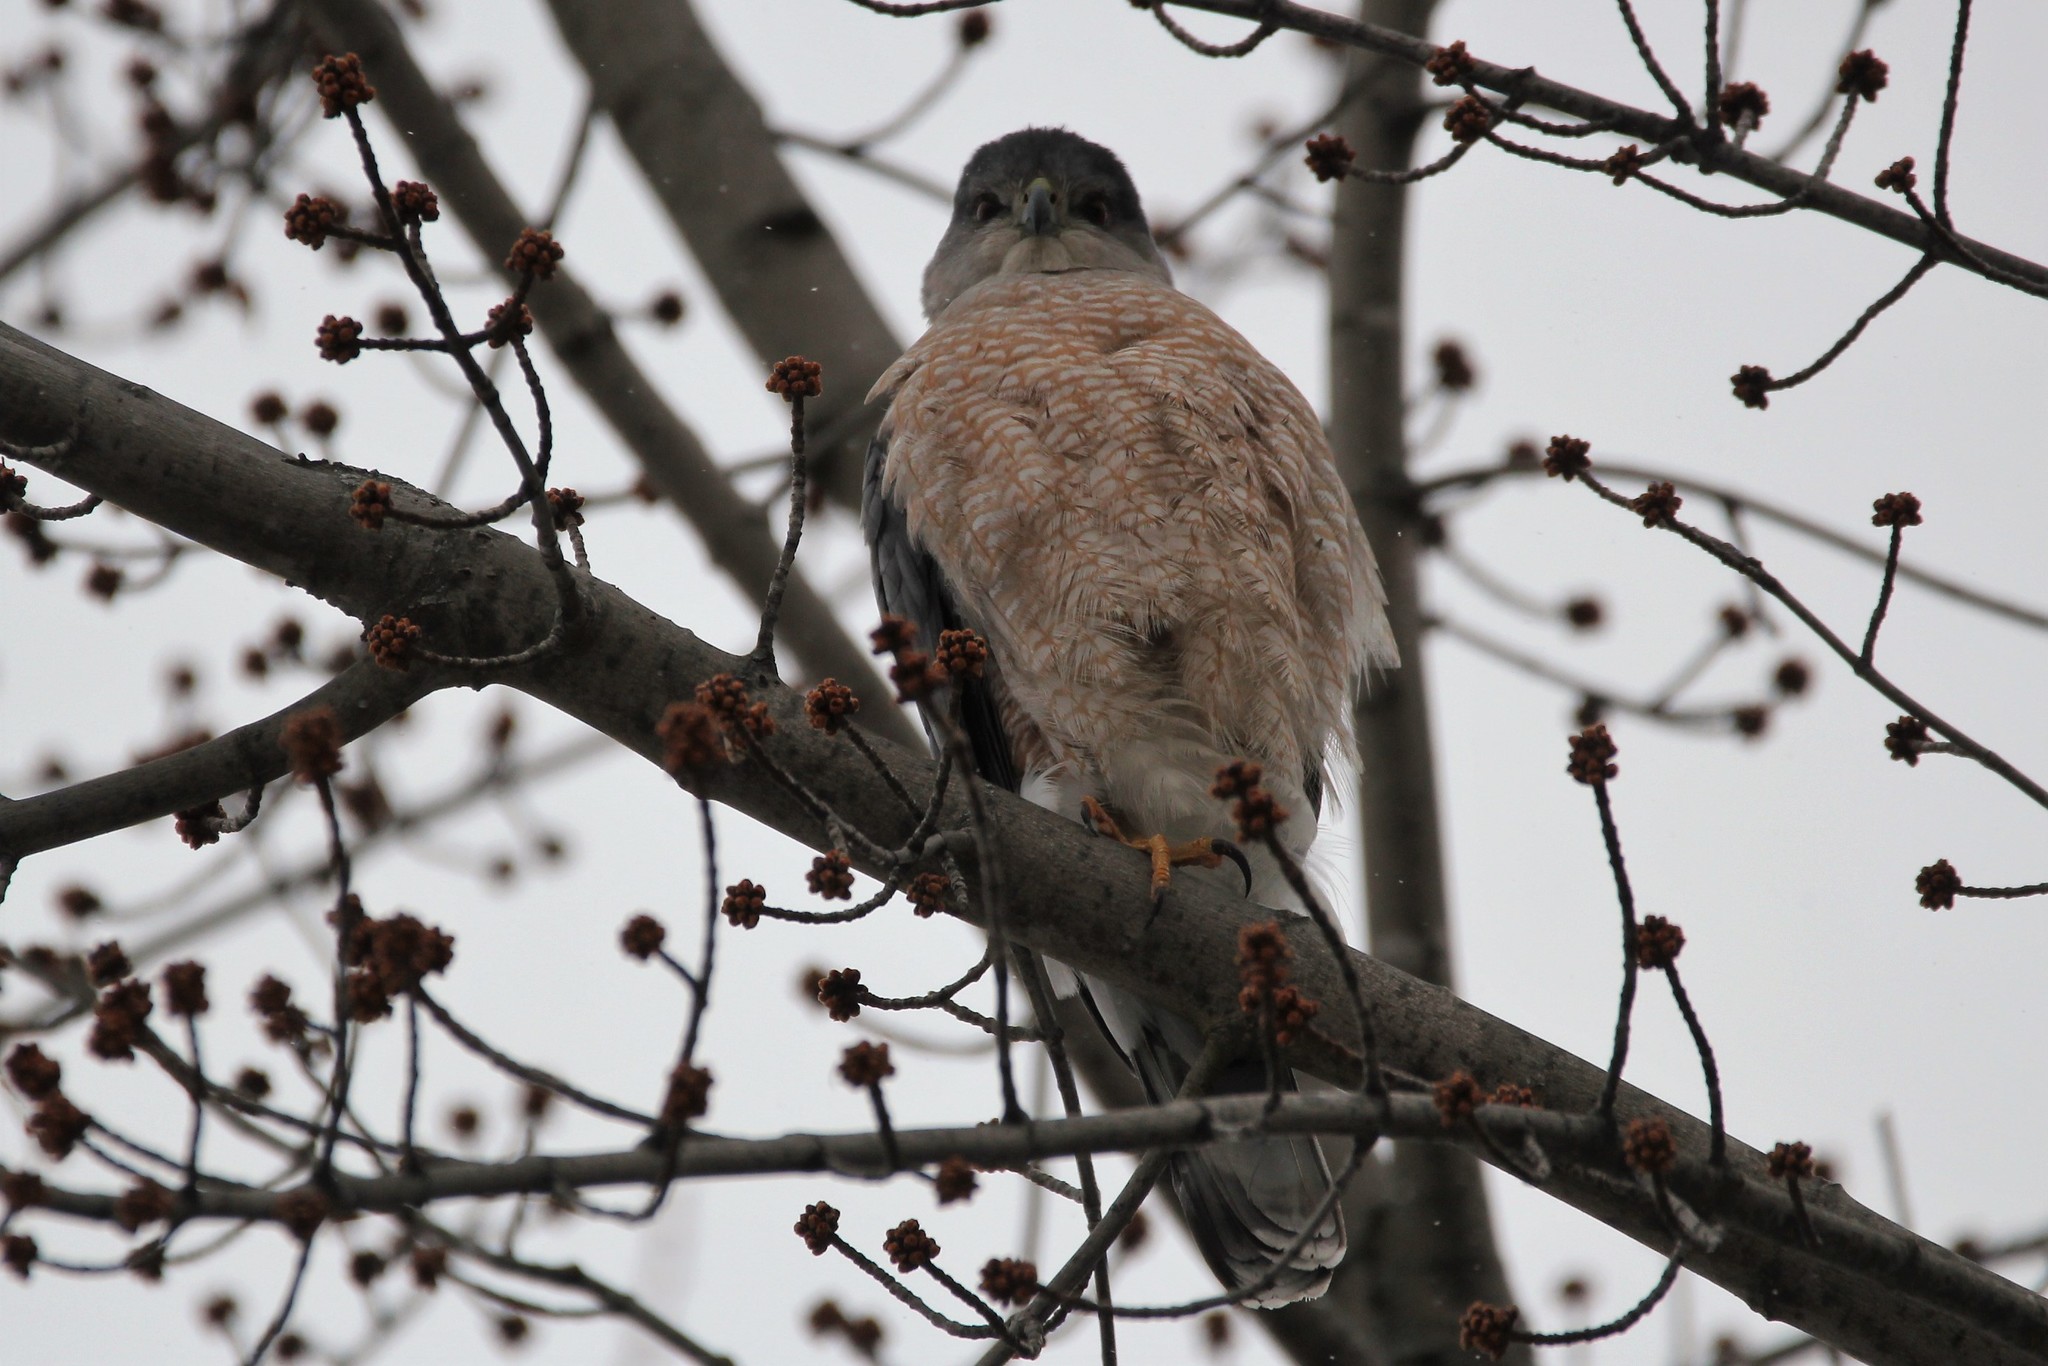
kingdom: Animalia
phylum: Chordata
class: Aves
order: Accipitriformes
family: Accipitridae
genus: Accipiter
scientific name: Accipiter cooperii
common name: Cooper's hawk
